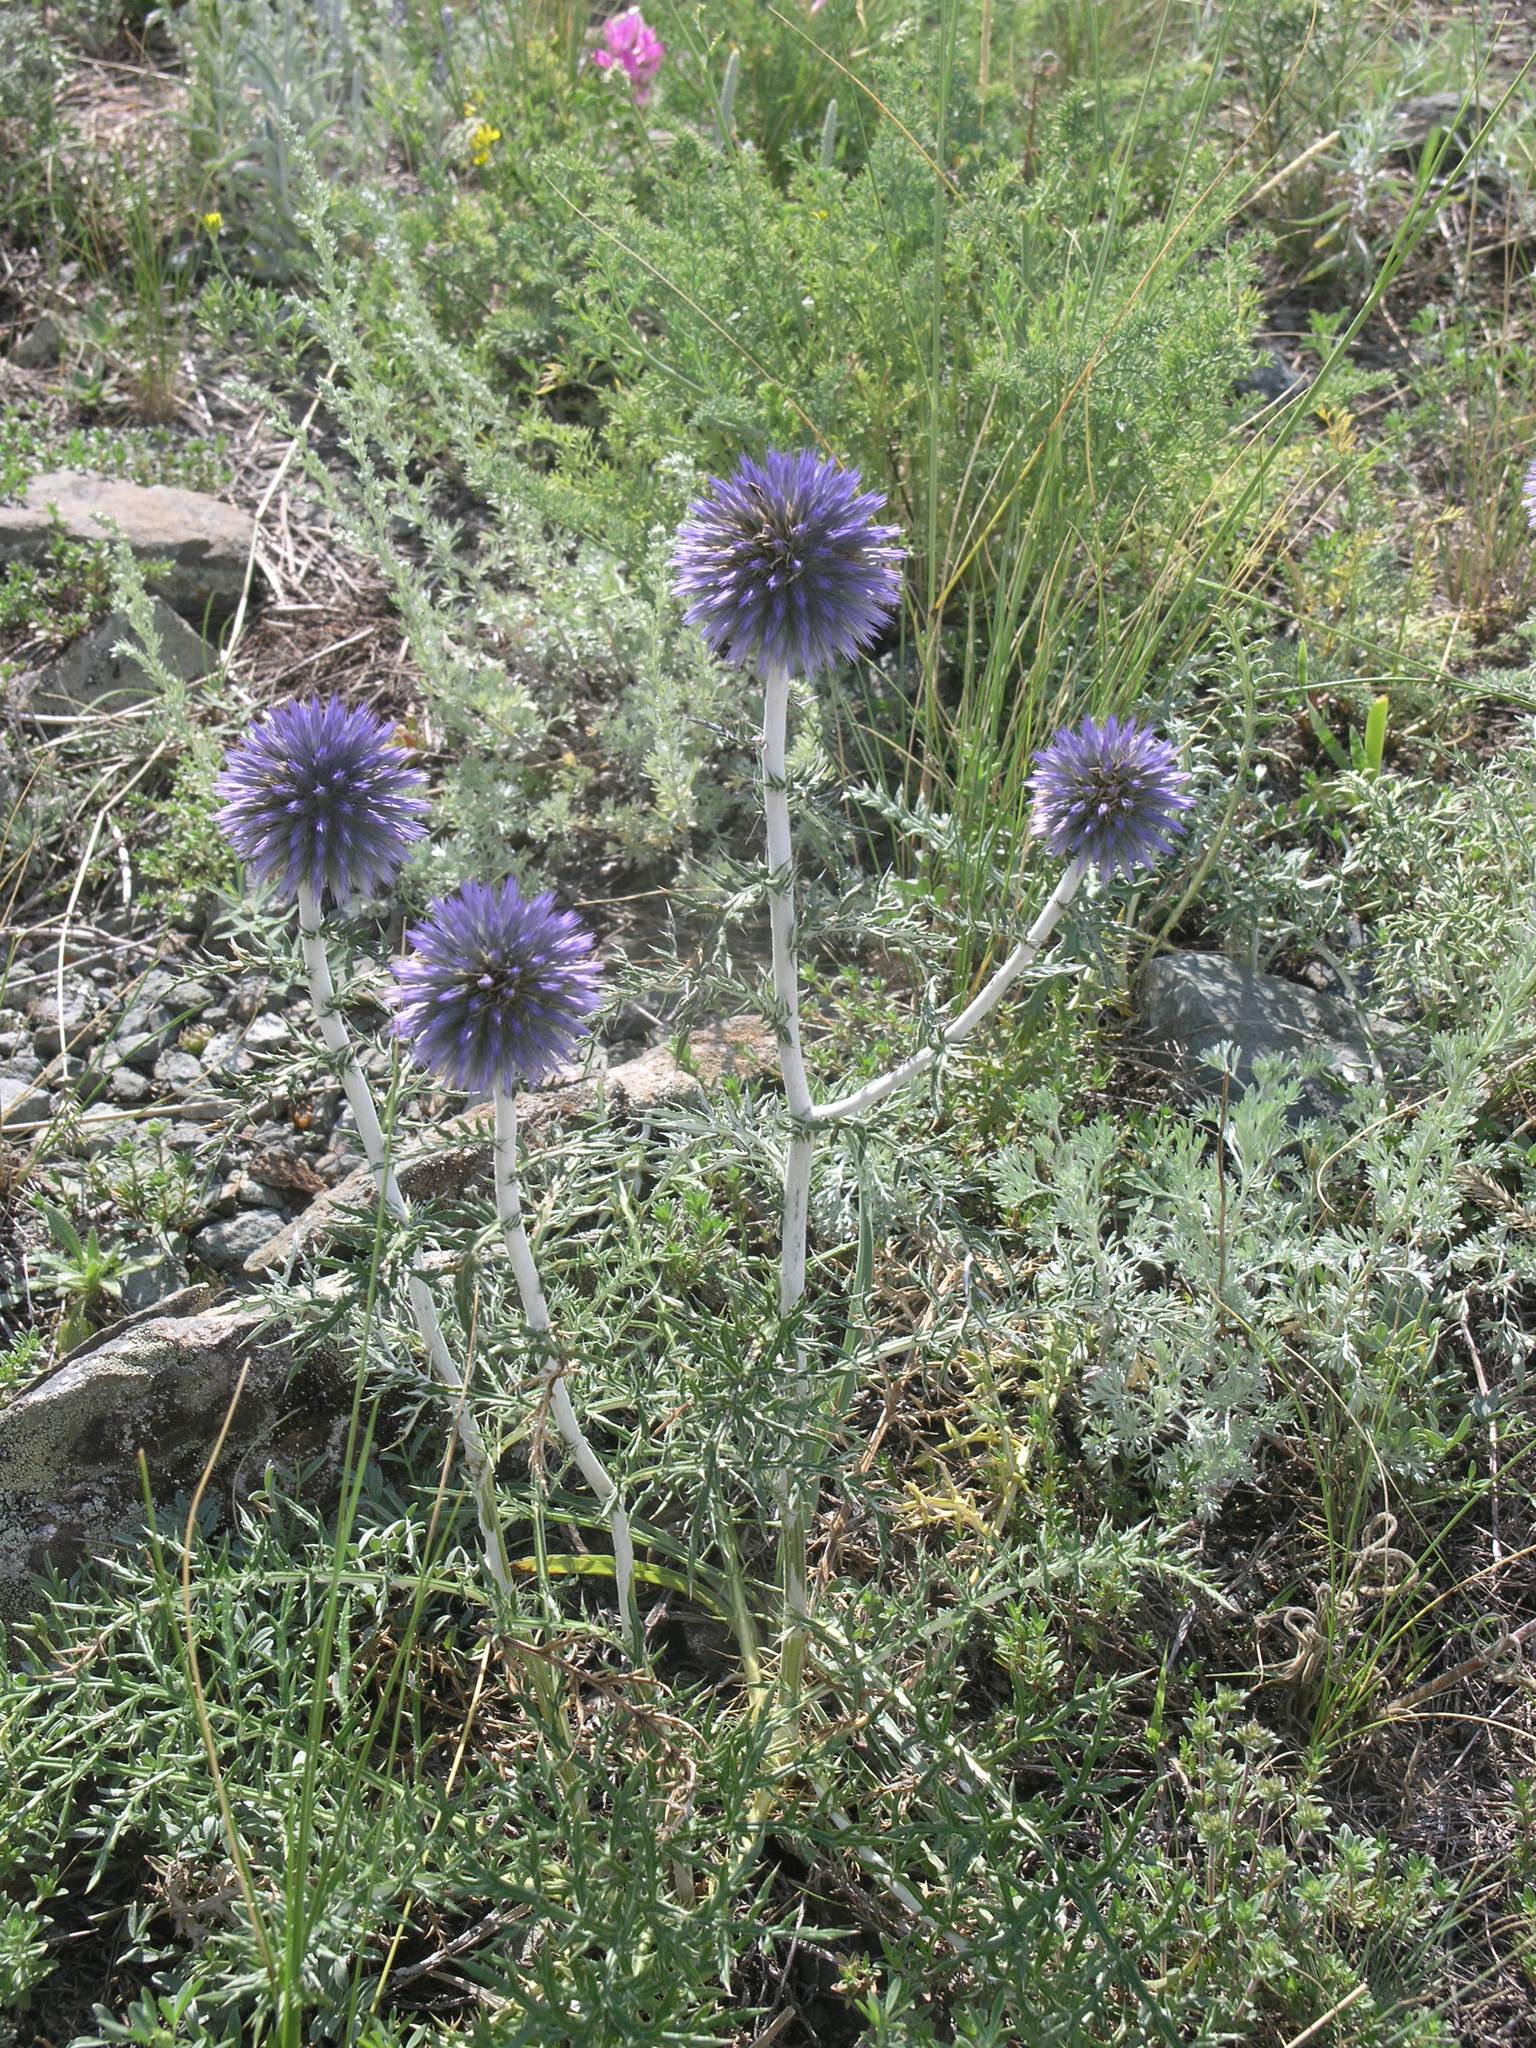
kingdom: Plantae
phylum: Tracheophyta
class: Magnoliopsida
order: Asterales
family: Asteraceae
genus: Echinops
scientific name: Echinops ritro
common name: Globe thistle
